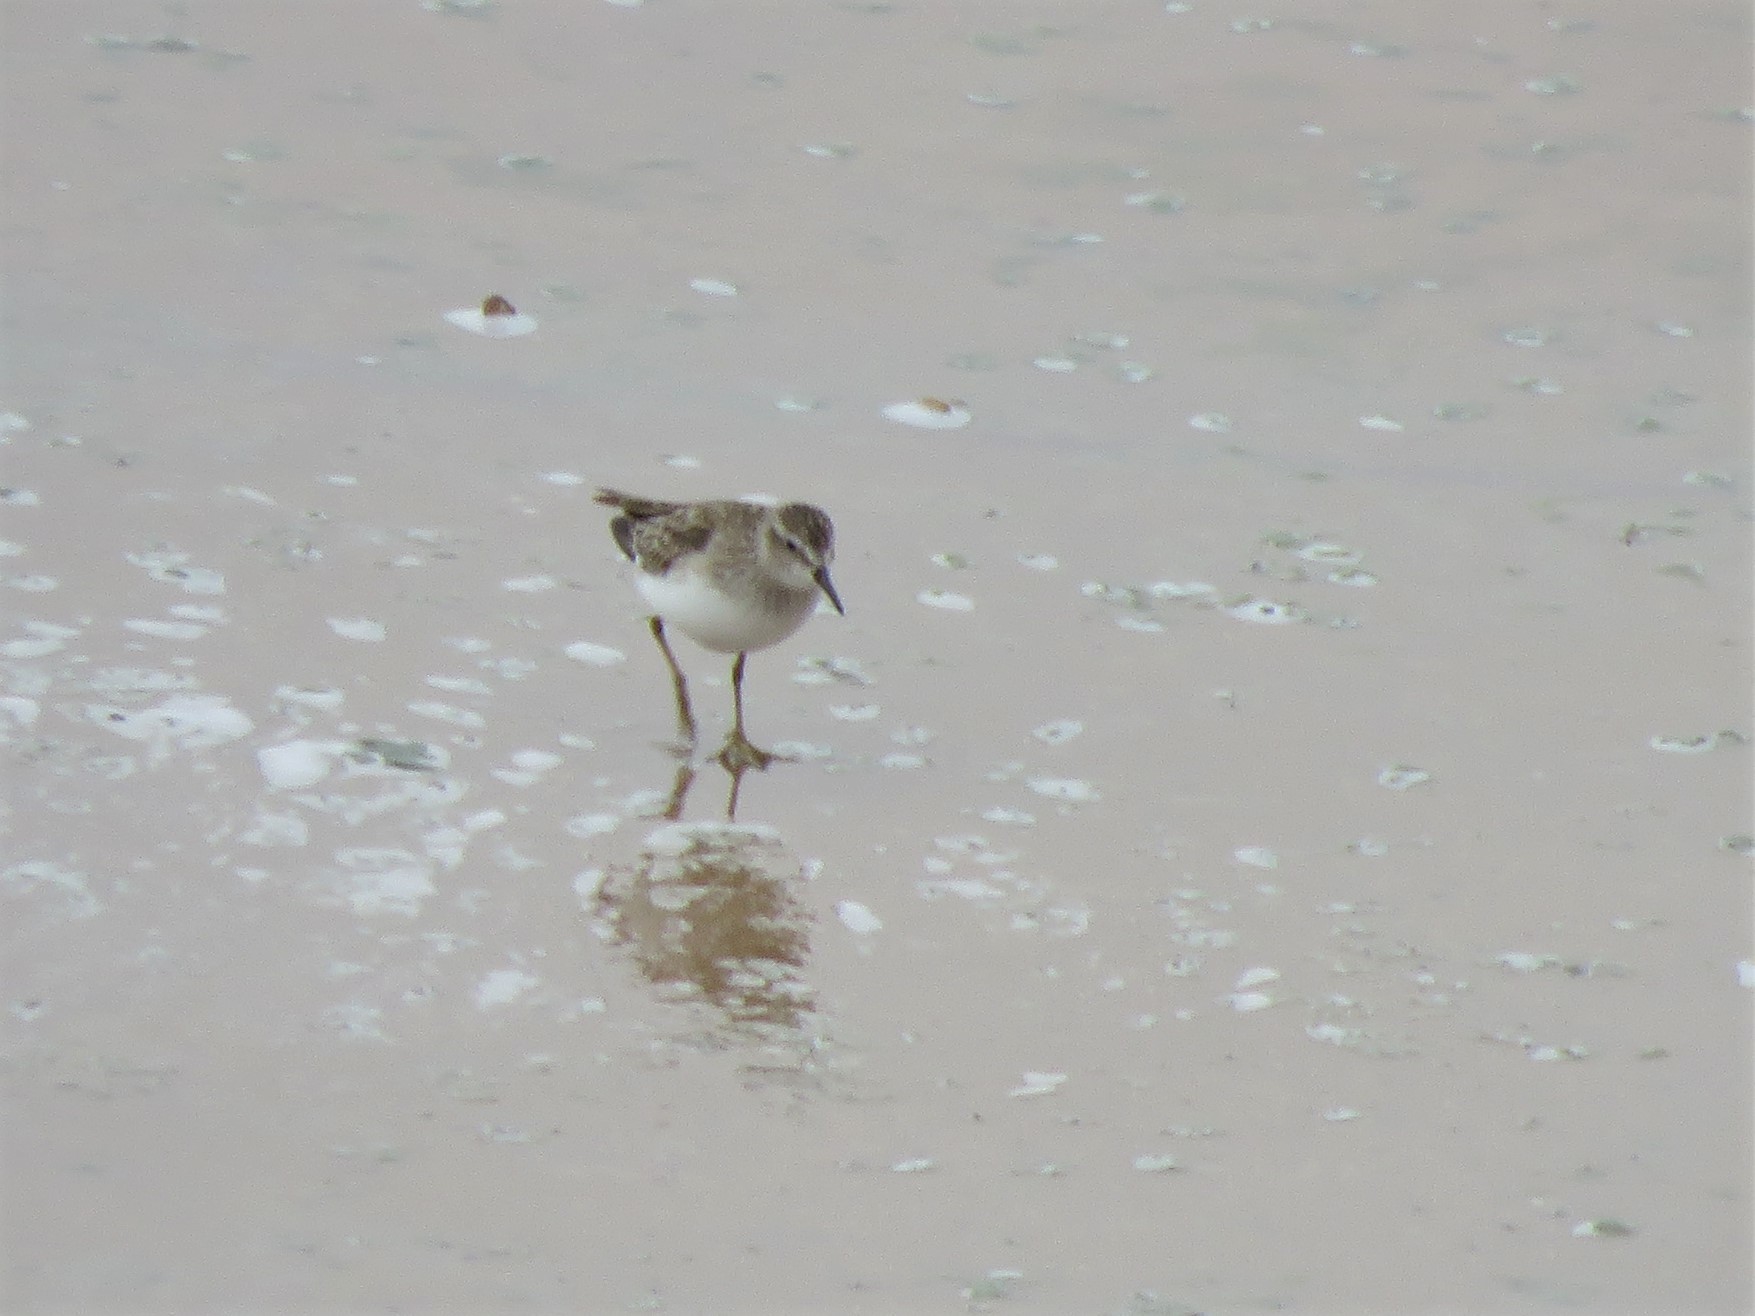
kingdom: Animalia
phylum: Chordata
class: Aves
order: Charadriiformes
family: Scolopacidae
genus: Calidris
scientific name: Calidris minutilla
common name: Least sandpiper
